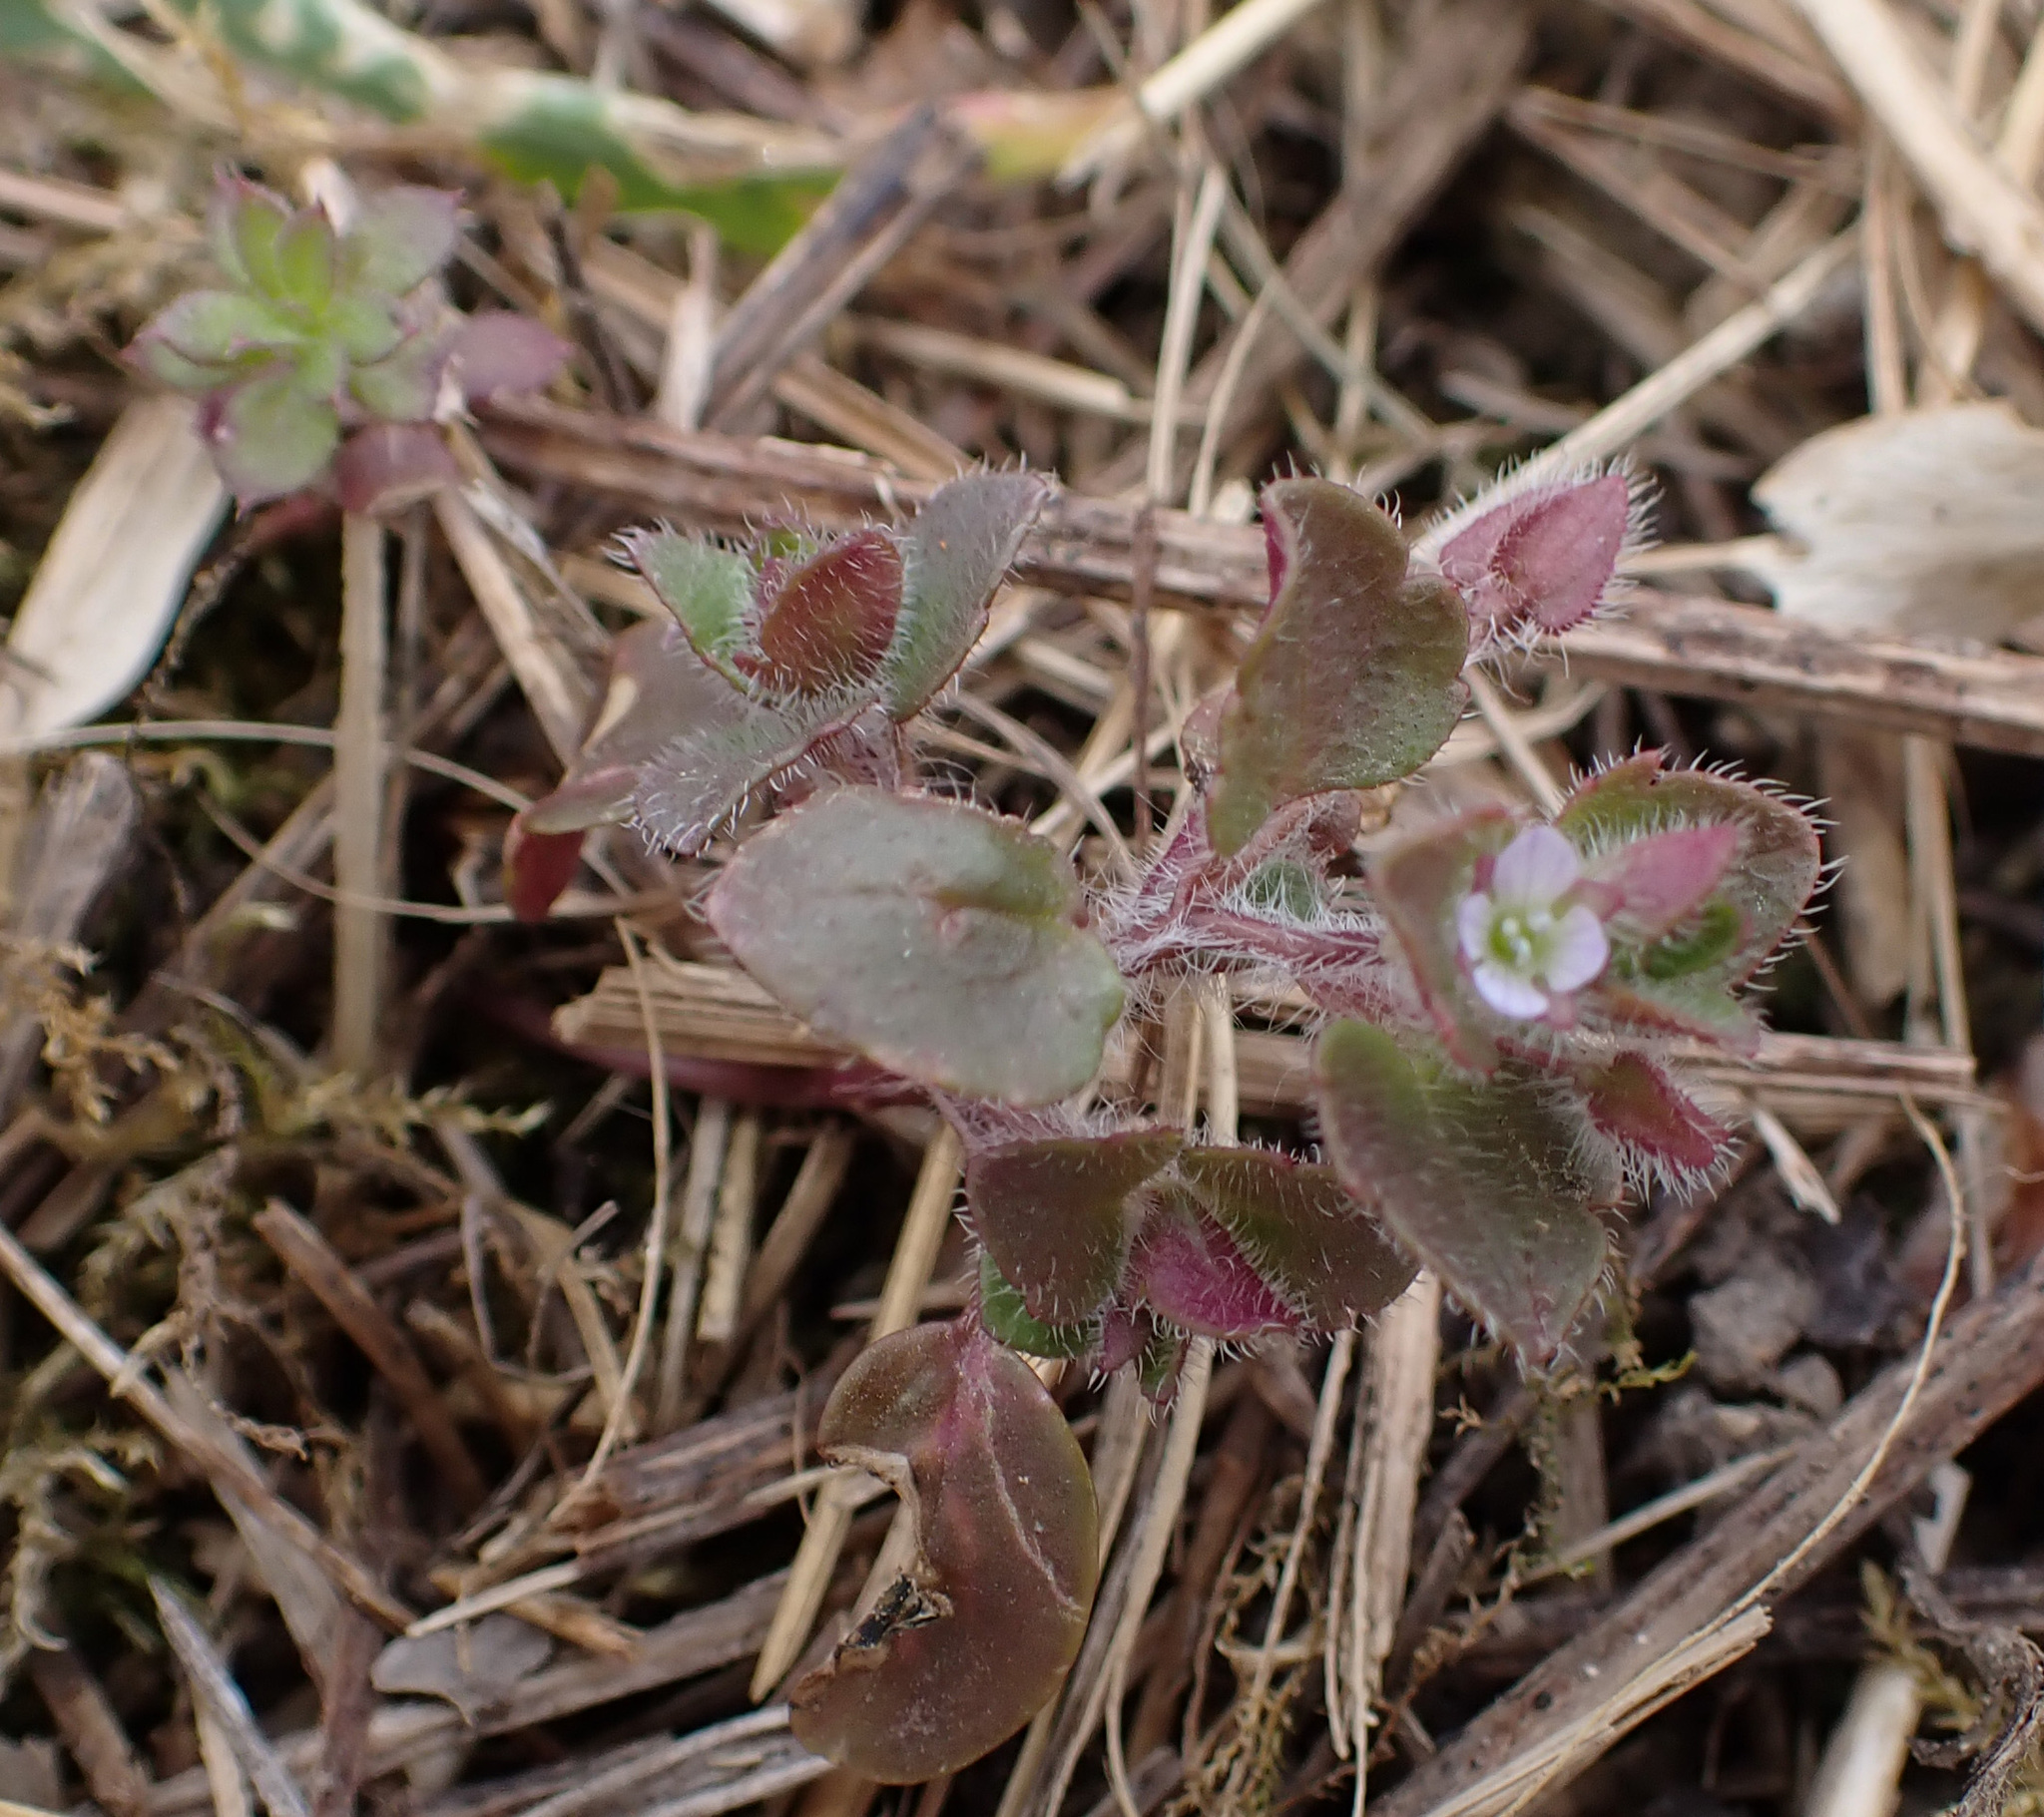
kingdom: Plantae
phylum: Tracheophyta
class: Magnoliopsida
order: Lamiales
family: Plantaginaceae
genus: Veronica
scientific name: Veronica sublobata
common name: False ivy-leaved speedwell
